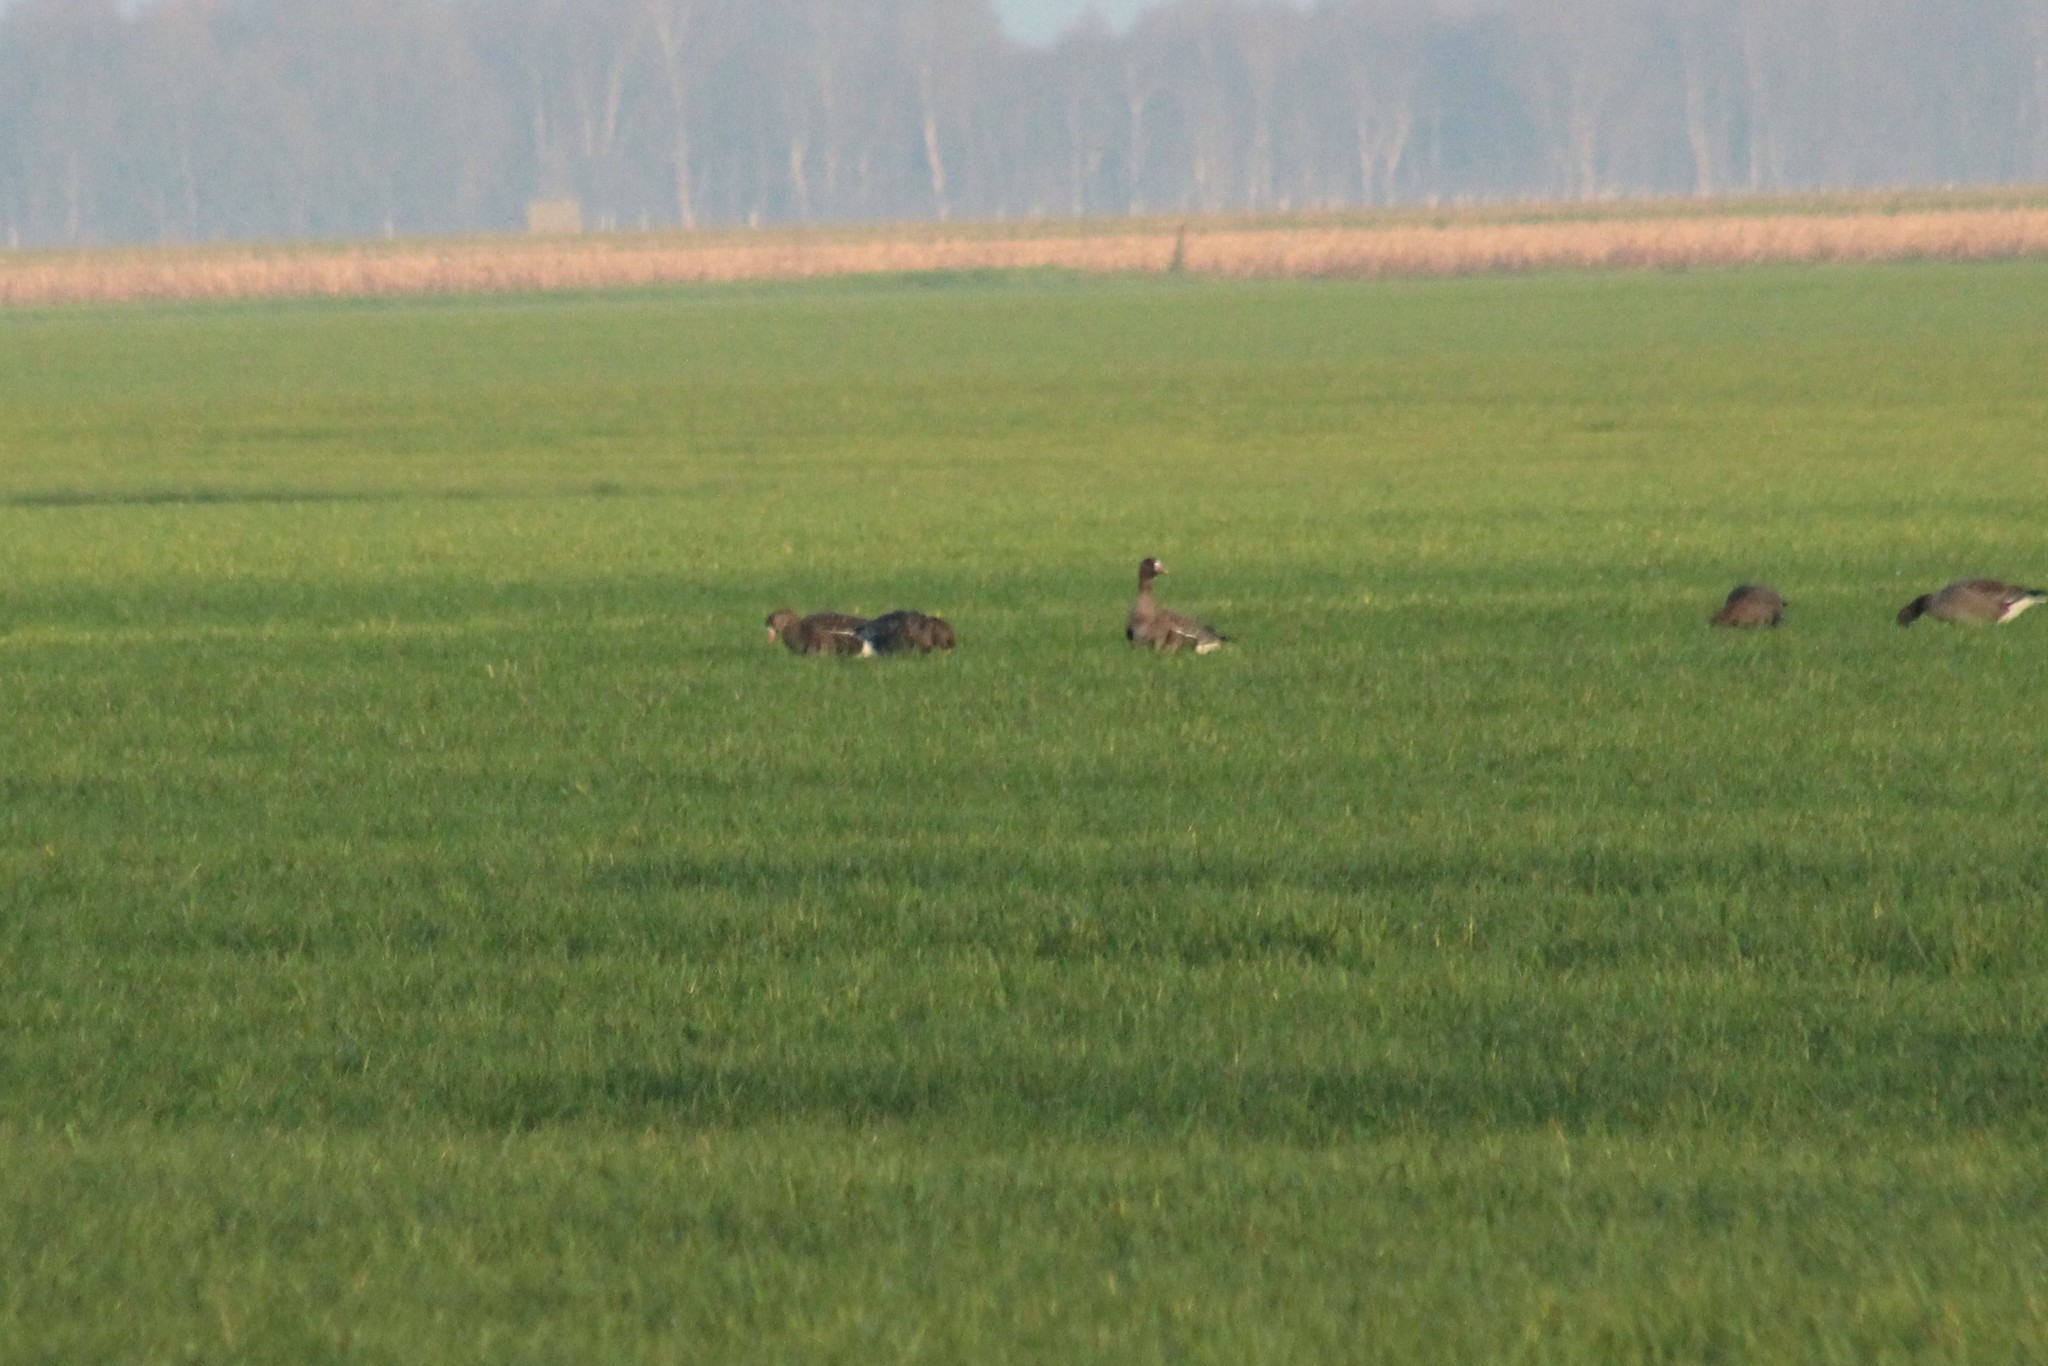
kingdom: Animalia
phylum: Chordata
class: Aves
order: Anseriformes
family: Anatidae
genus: Anser
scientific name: Anser albifrons
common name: Greater white-fronted goose
